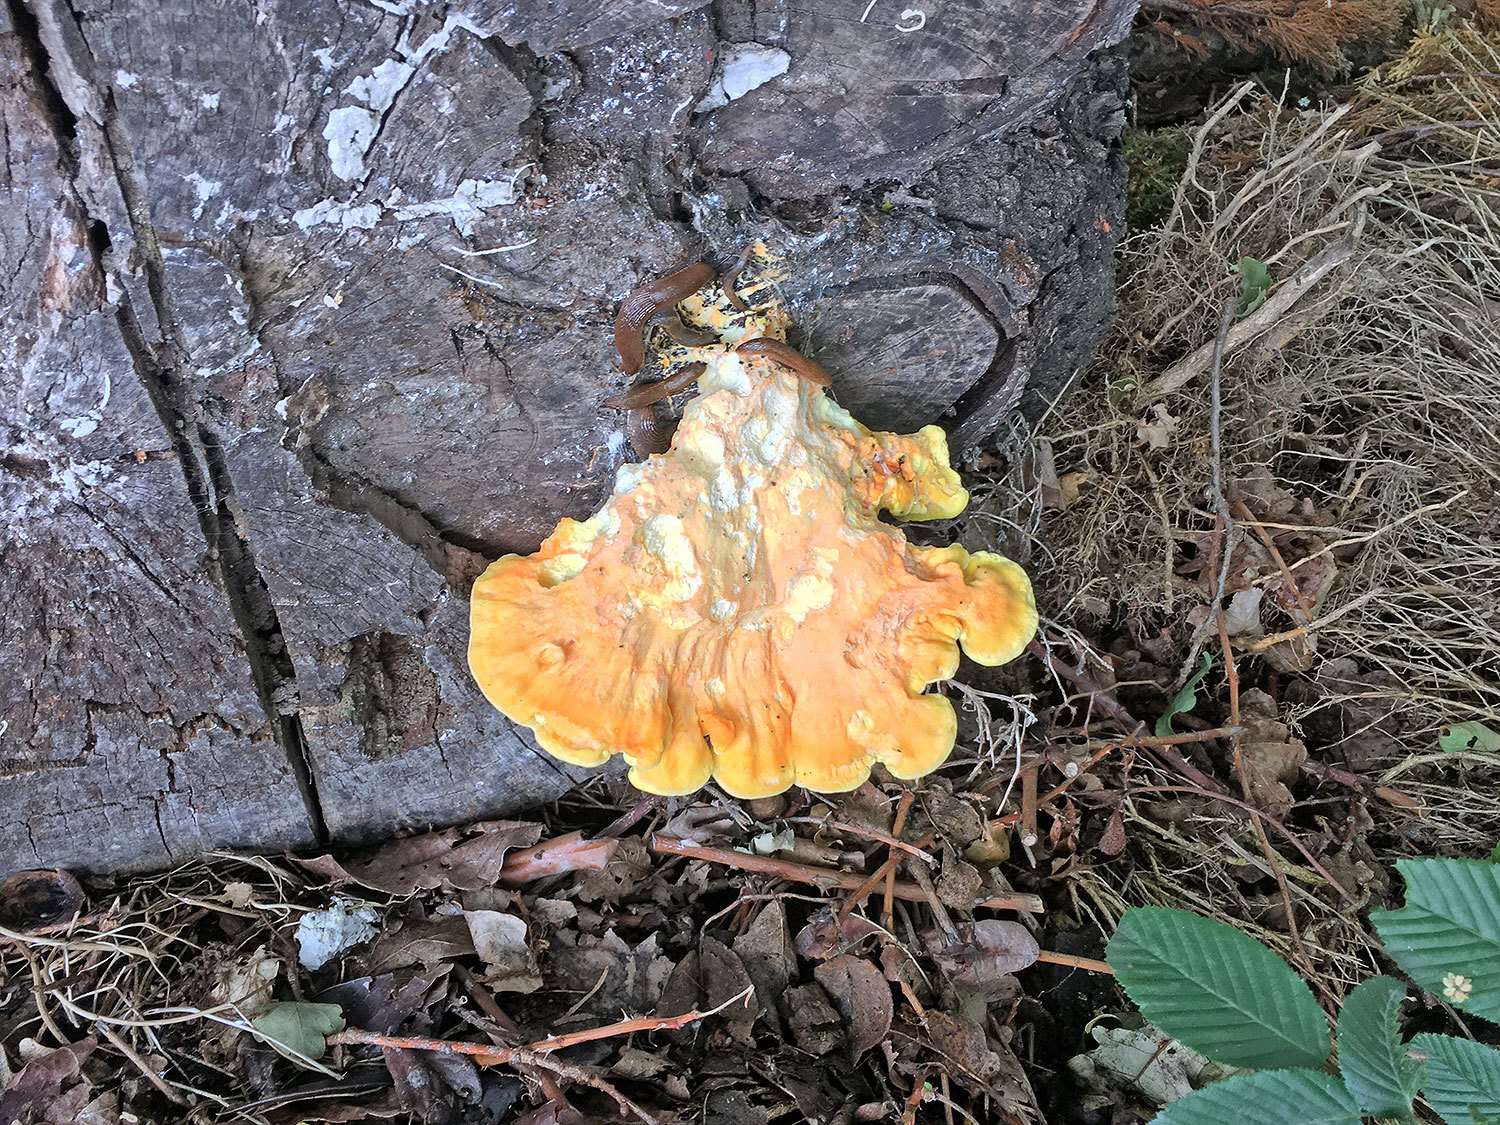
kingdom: Fungi
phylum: Basidiomycota
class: Agaricomycetes
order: Polyporales
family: Laetiporaceae
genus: Laetiporus
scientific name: Laetiporus sulphureus
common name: Chicken of the woods
